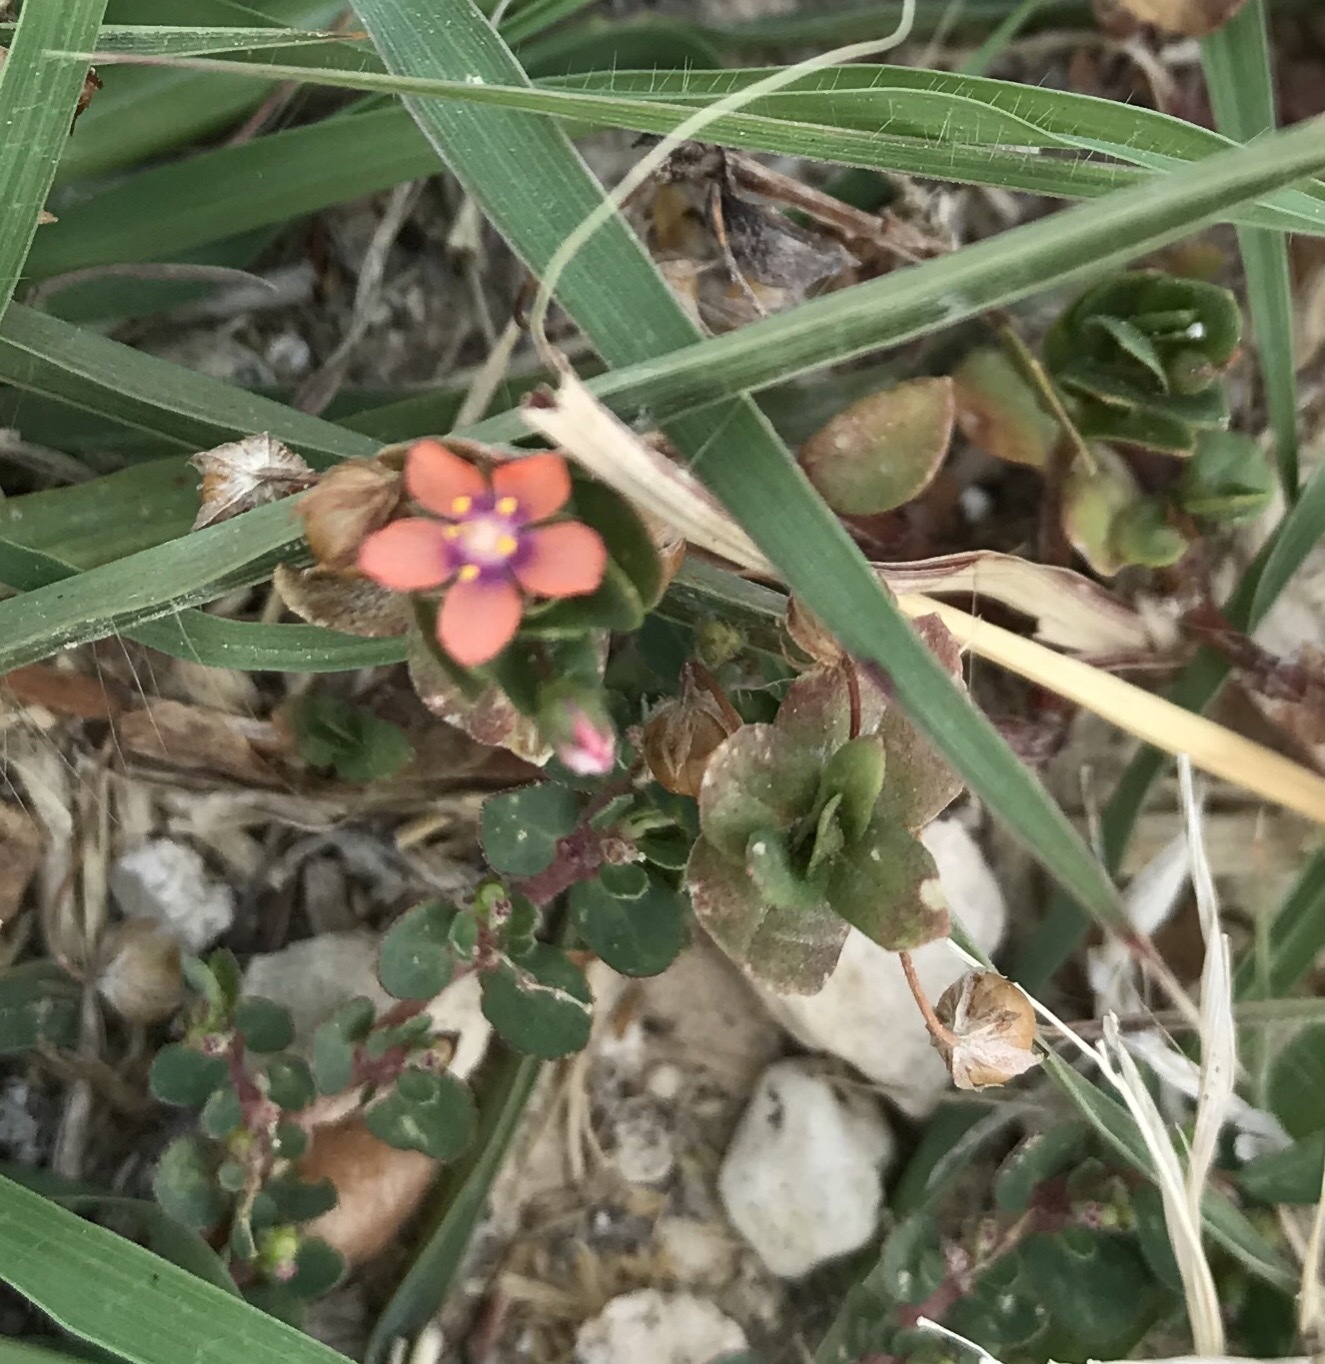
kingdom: Plantae
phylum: Tracheophyta
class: Magnoliopsida
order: Ericales
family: Primulaceae
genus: Lysimachia
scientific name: Lysimachia arvensis
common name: Scarlet pimpernel
